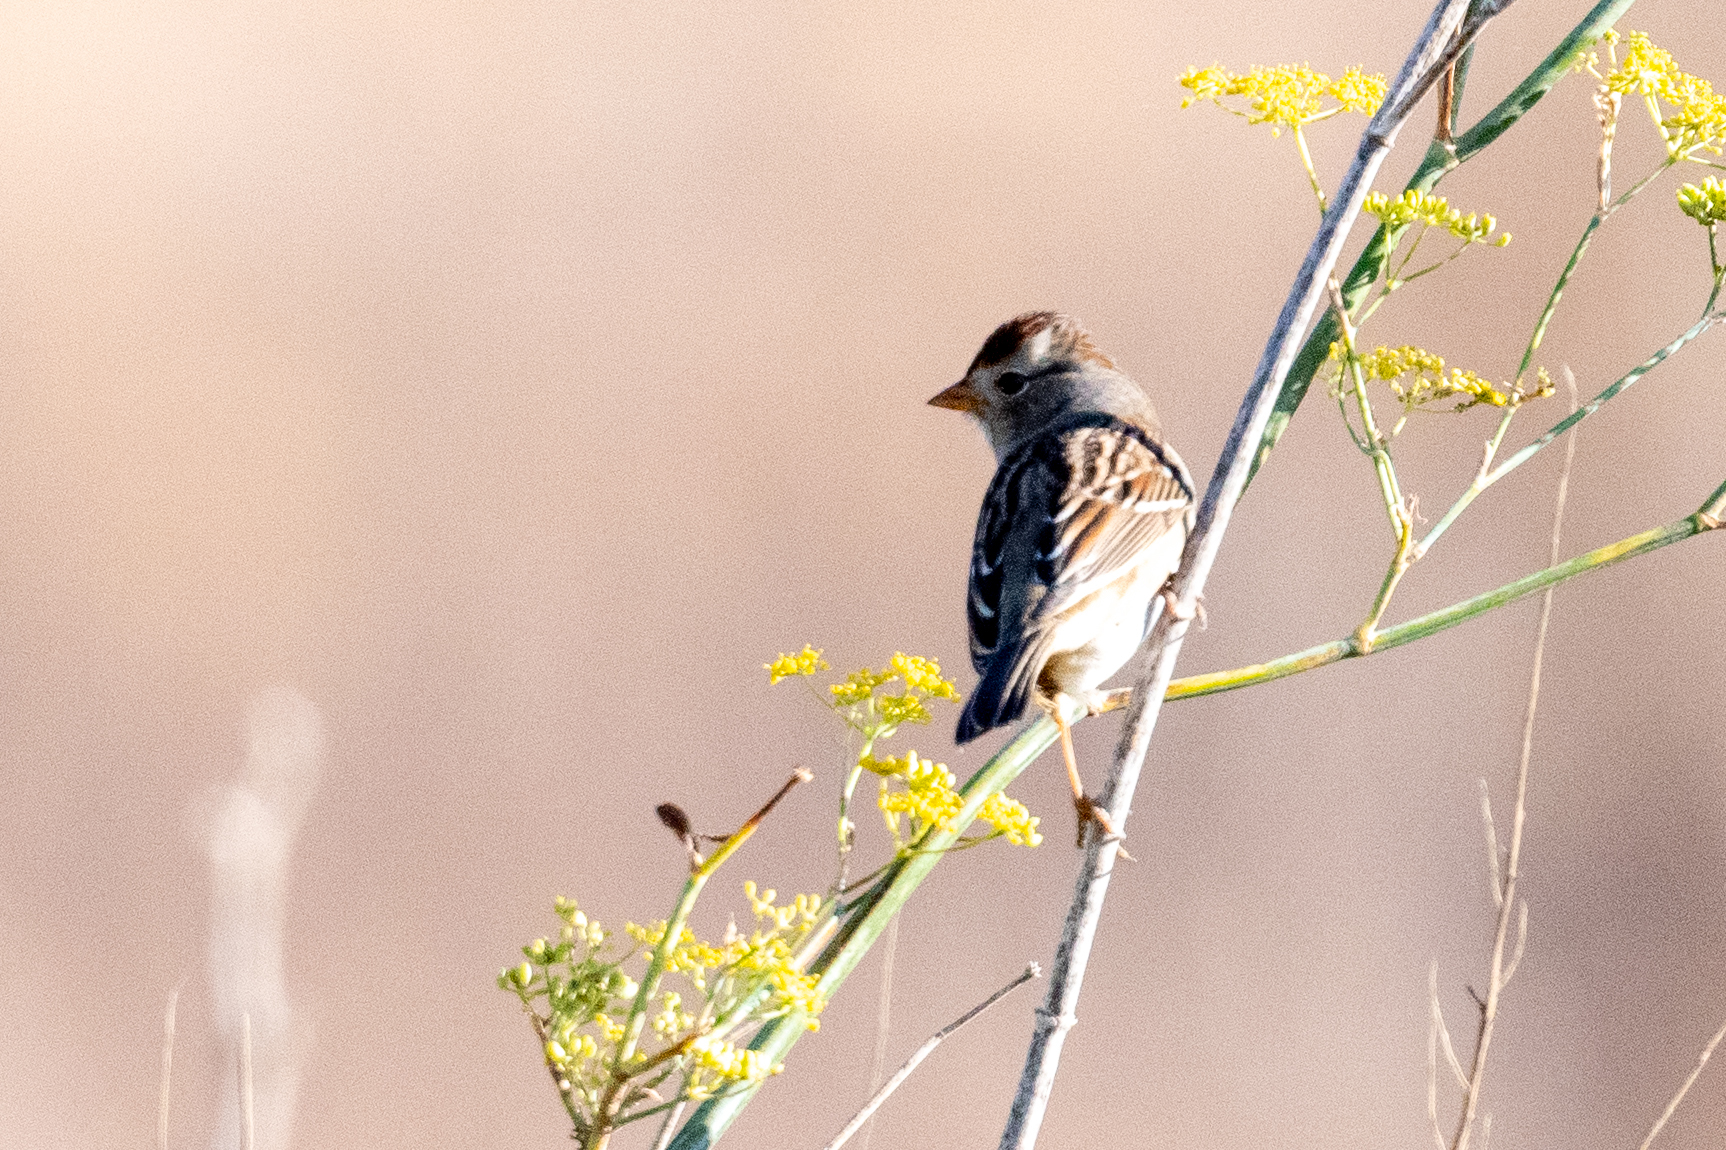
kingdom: Animalia
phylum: Chordata
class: Aves
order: Passeriformes
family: Passerellidae
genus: Zonotrichia
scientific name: Zonotrichia leucophrys
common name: White-crowned sparrow
